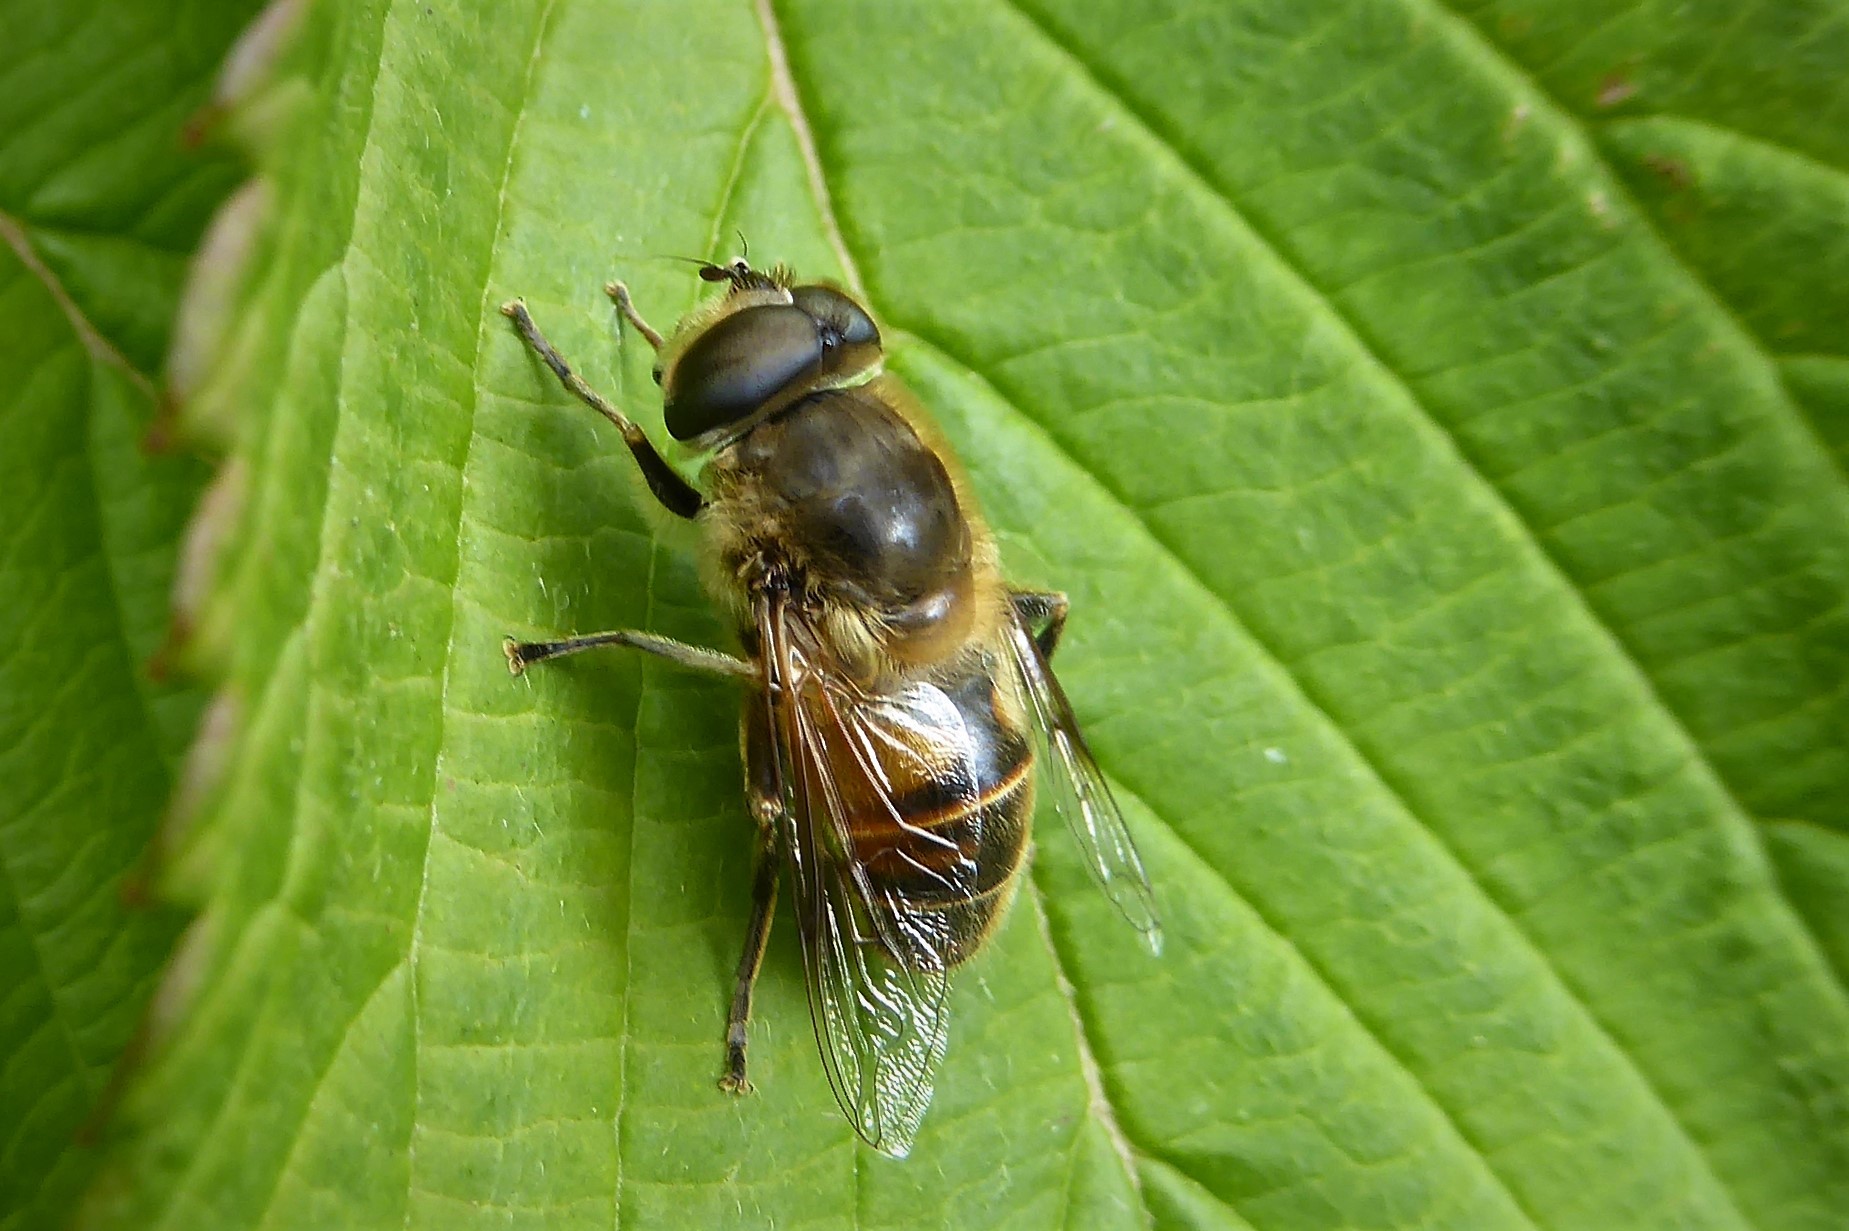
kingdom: Animalia
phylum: Arthropoda
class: Insecta
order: Diptera
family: Syrphidae
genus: Eristalis
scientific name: Eristalis tenax
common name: Drone fly
